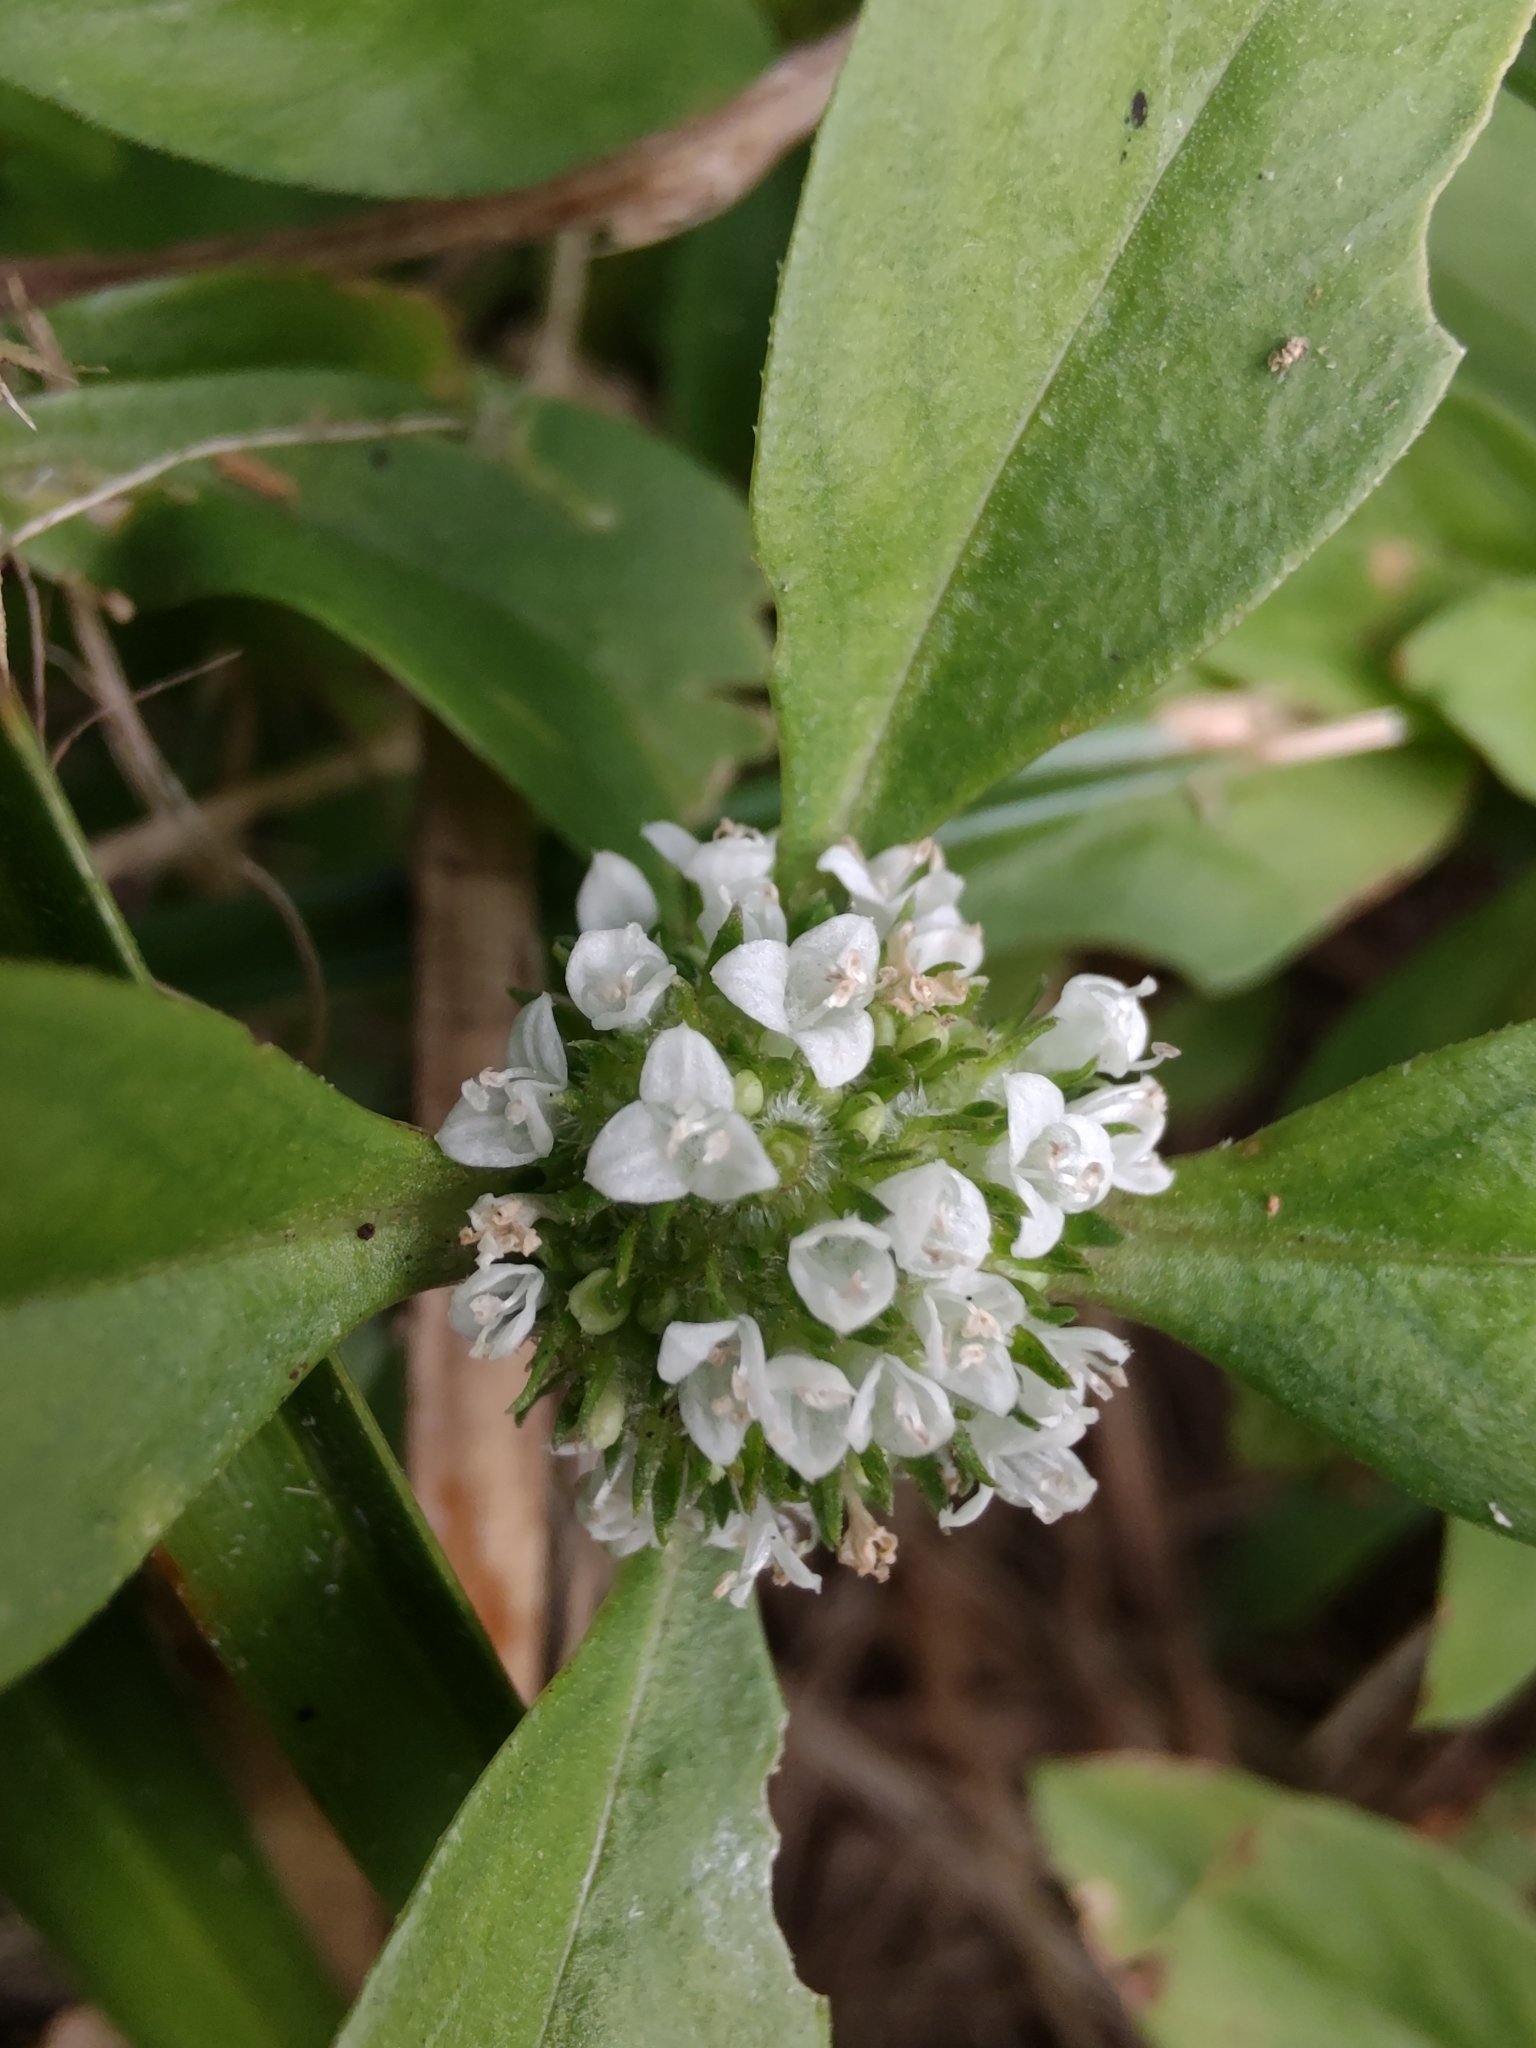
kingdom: Plantae
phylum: Tracheophyta
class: Magnoliopsida
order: Gentianales
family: Rubiaceae
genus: Spermacoce
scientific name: Spermacoce dasycephala
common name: False buttonweed
